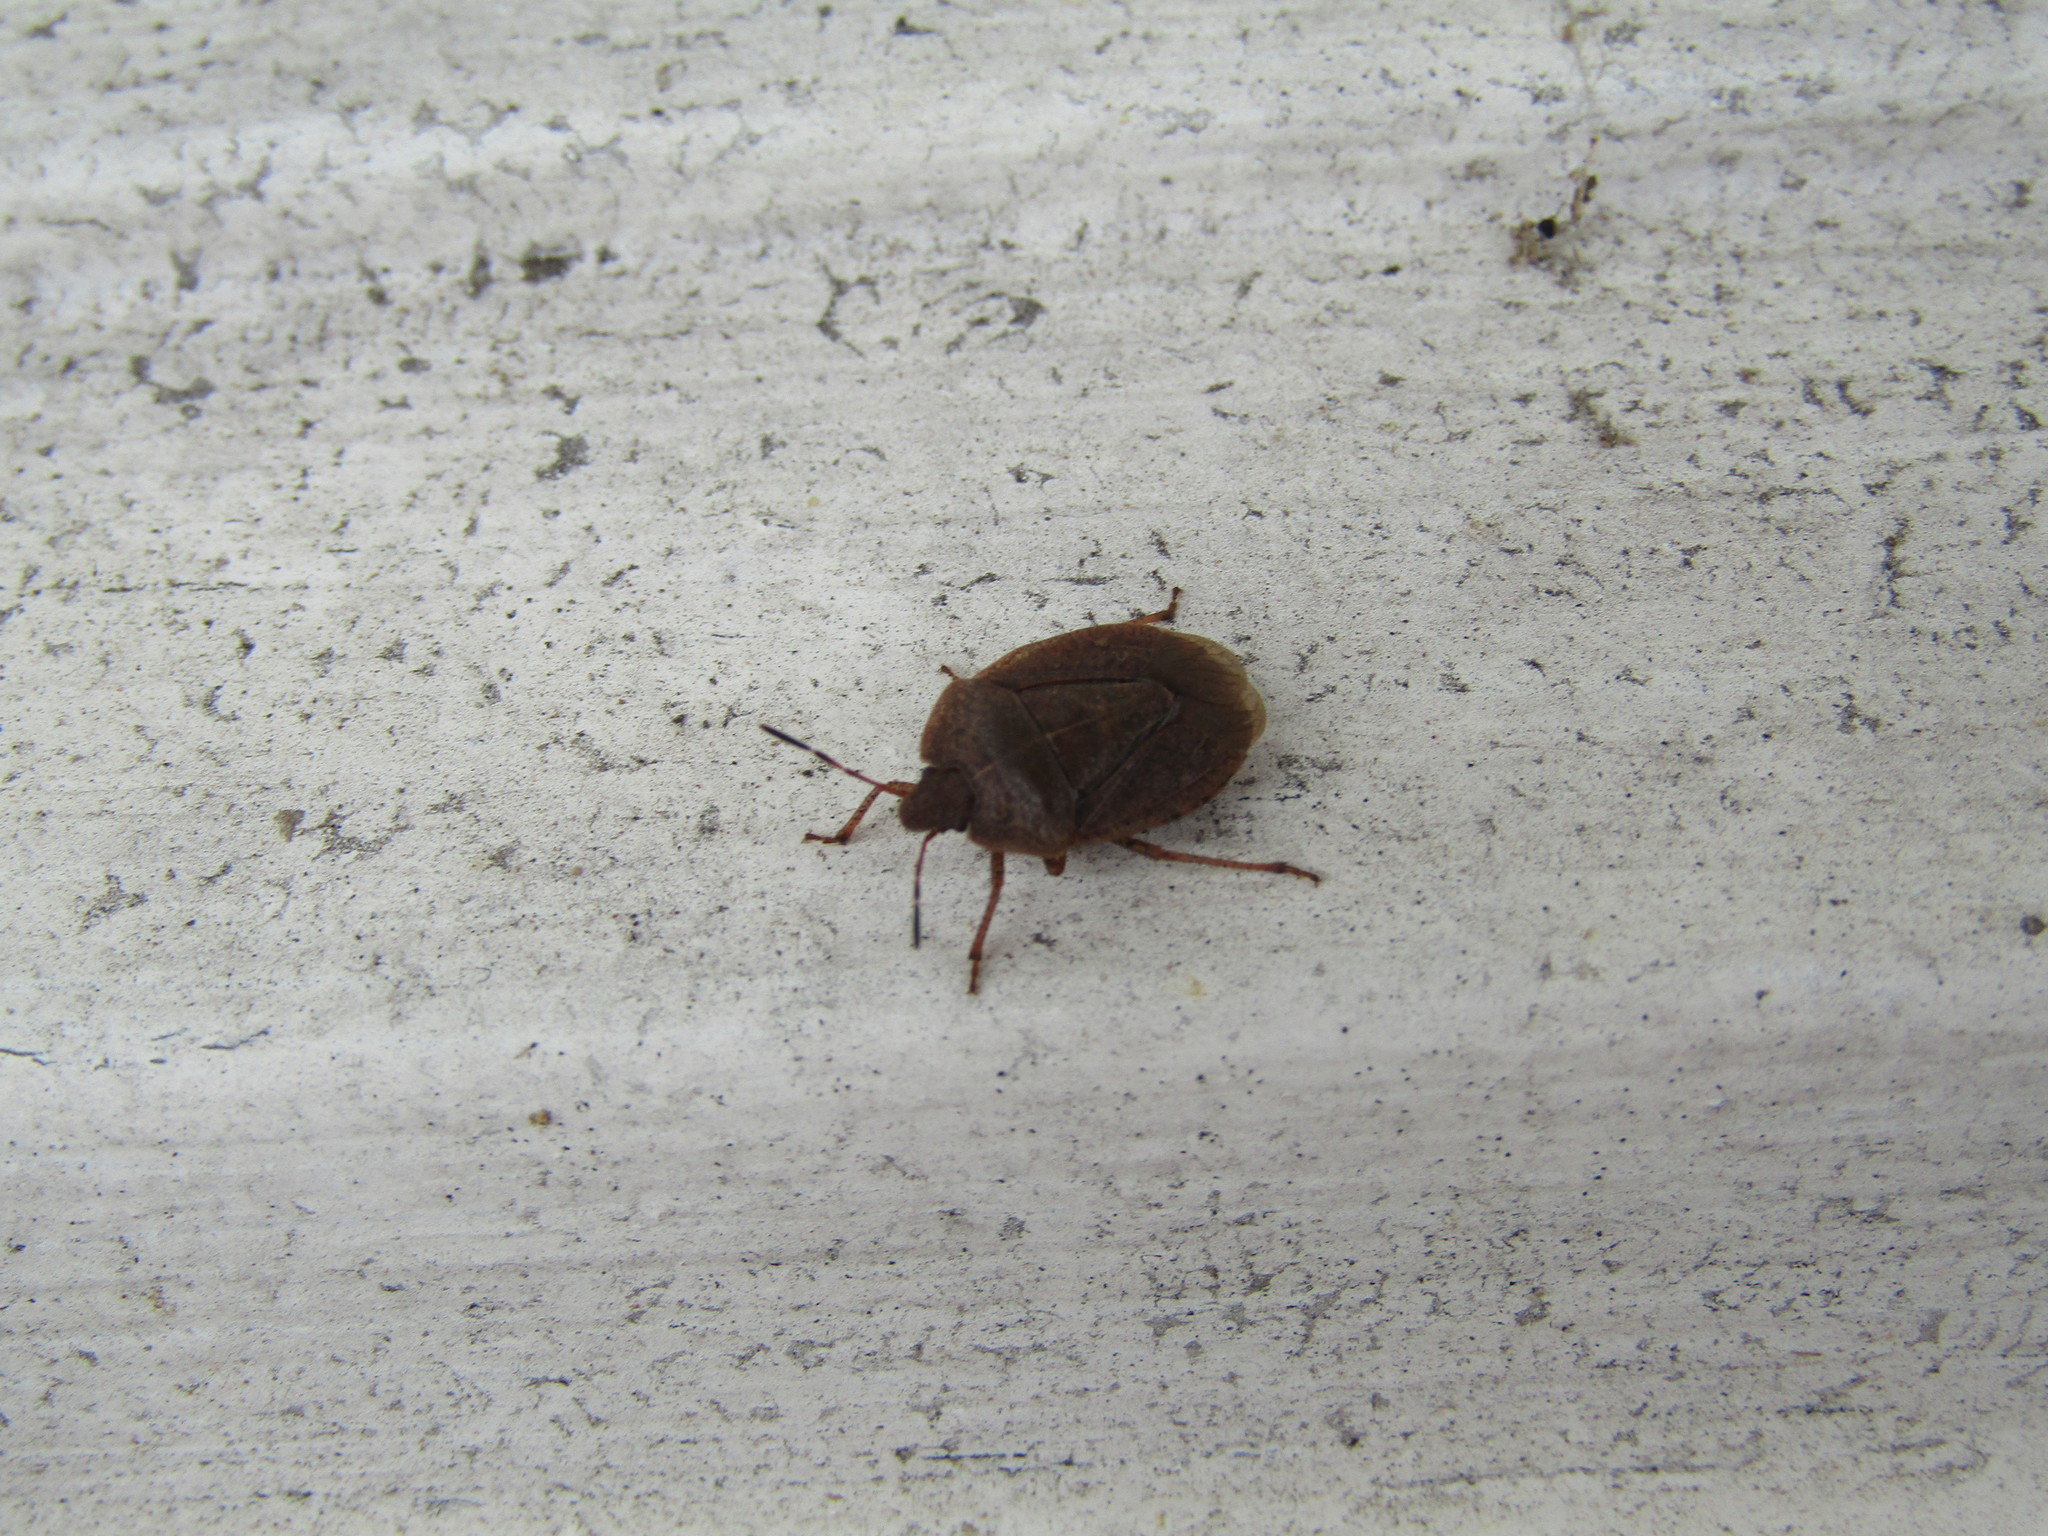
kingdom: Animalia
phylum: Arthropoda
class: Insecta
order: Hemiptera
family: Pentatomidae
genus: Menecles
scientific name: Menecles insertus
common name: Elf shoe stink bug
